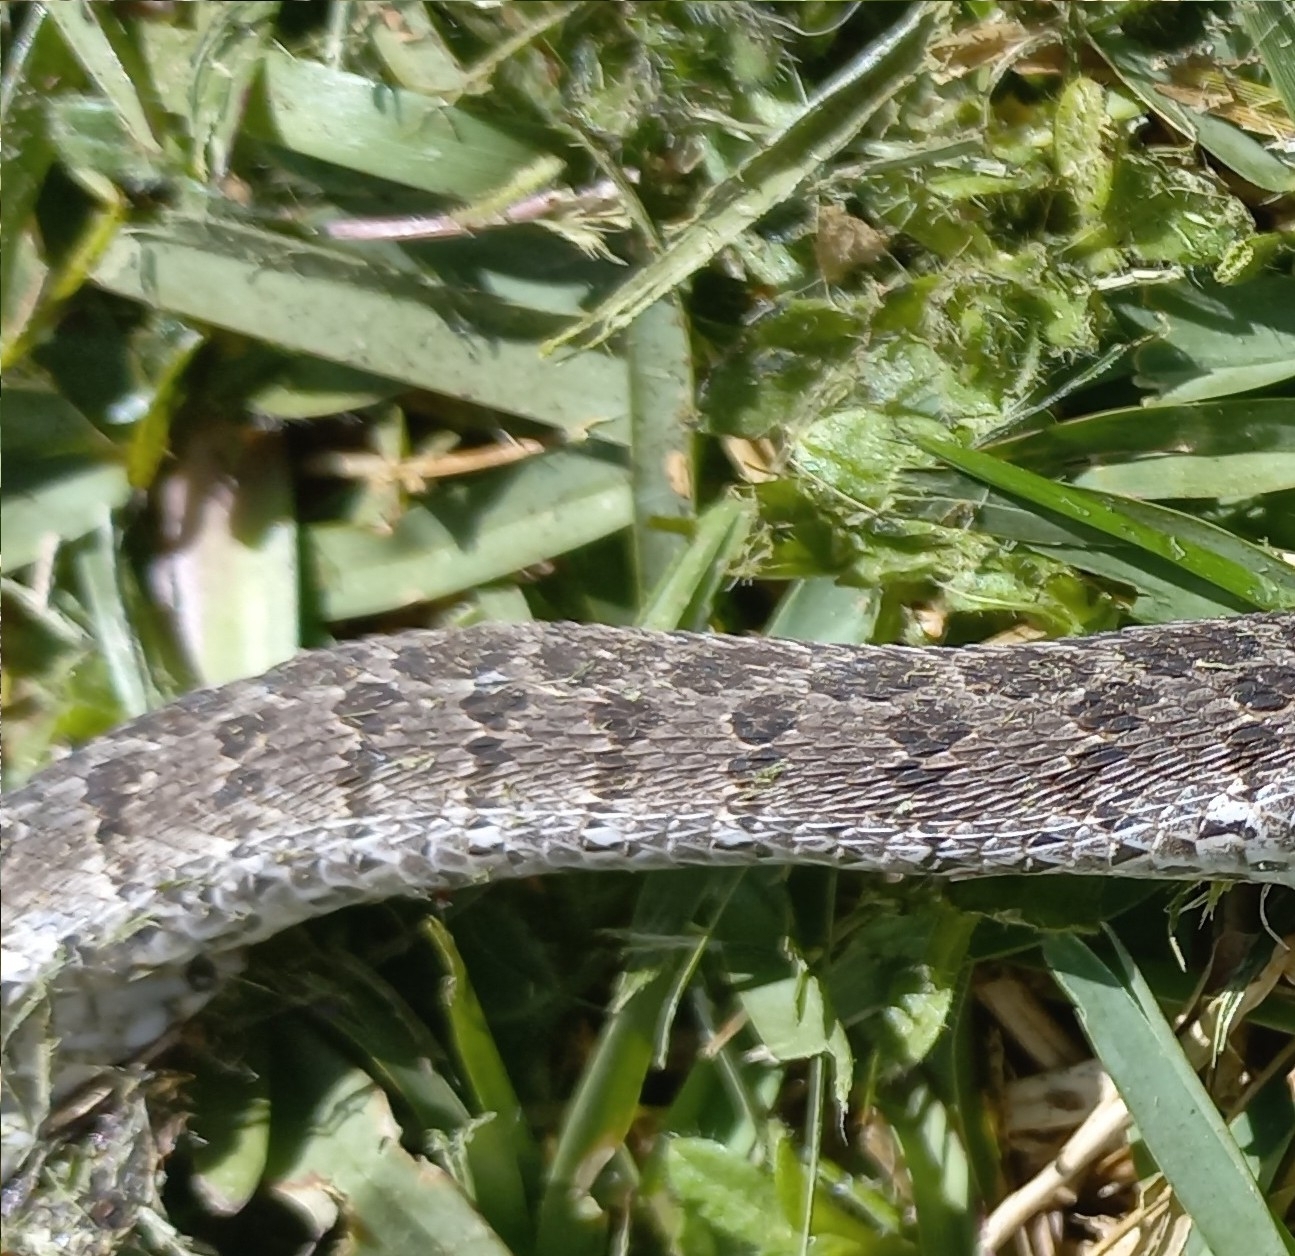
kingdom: Animalia
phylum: Chordata
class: Squamata
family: Colubridae
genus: Dasypeltis
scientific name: Dasypeltis scabra
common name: Common egg eater
